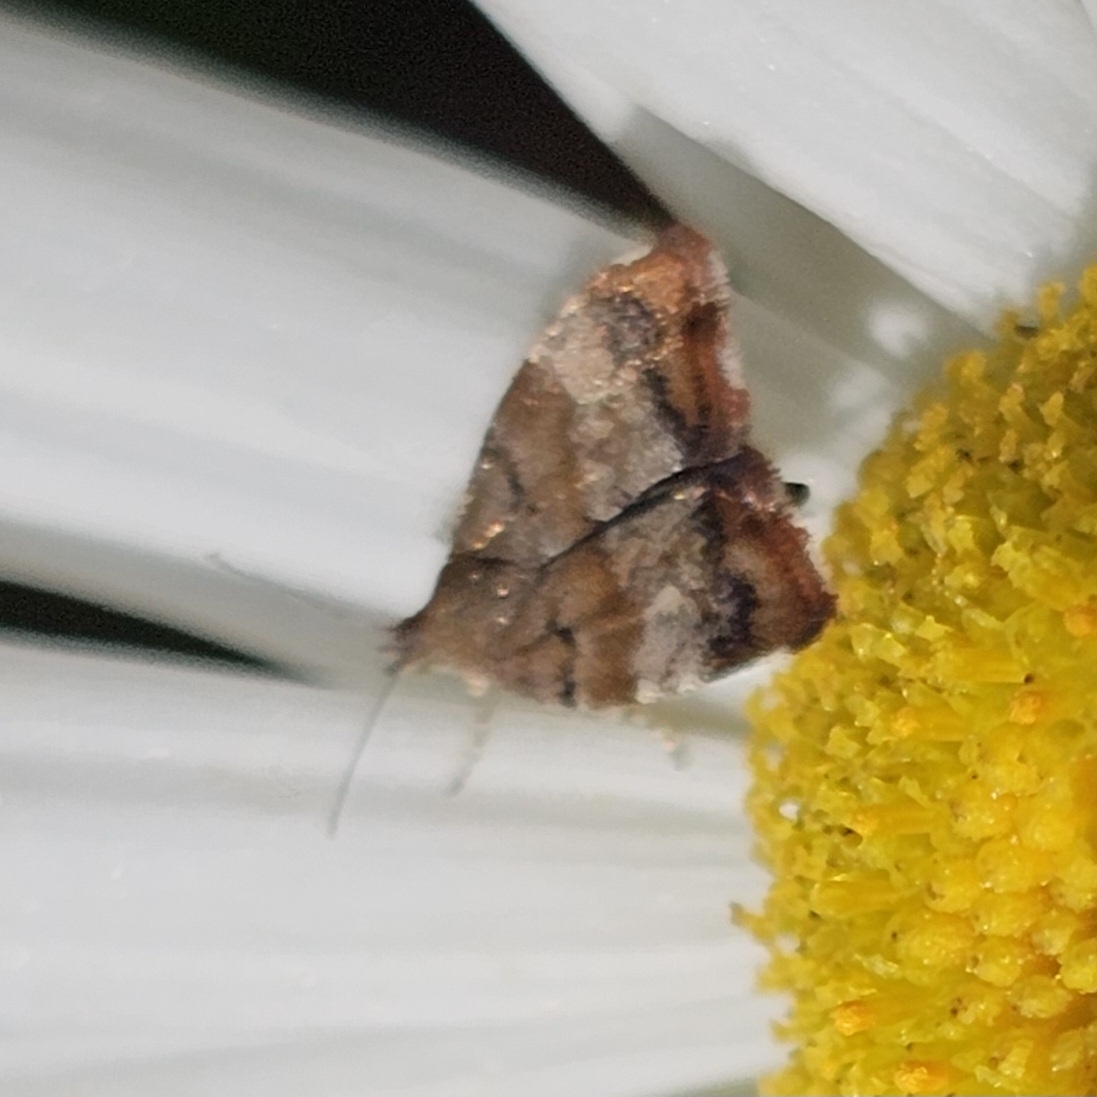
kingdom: Animalia
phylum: Arthropoda
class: Insecta
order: Lepidoptera
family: Choreutidae
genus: Choreutis
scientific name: Choreutis pariana
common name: Apple leaf skeletoniser
